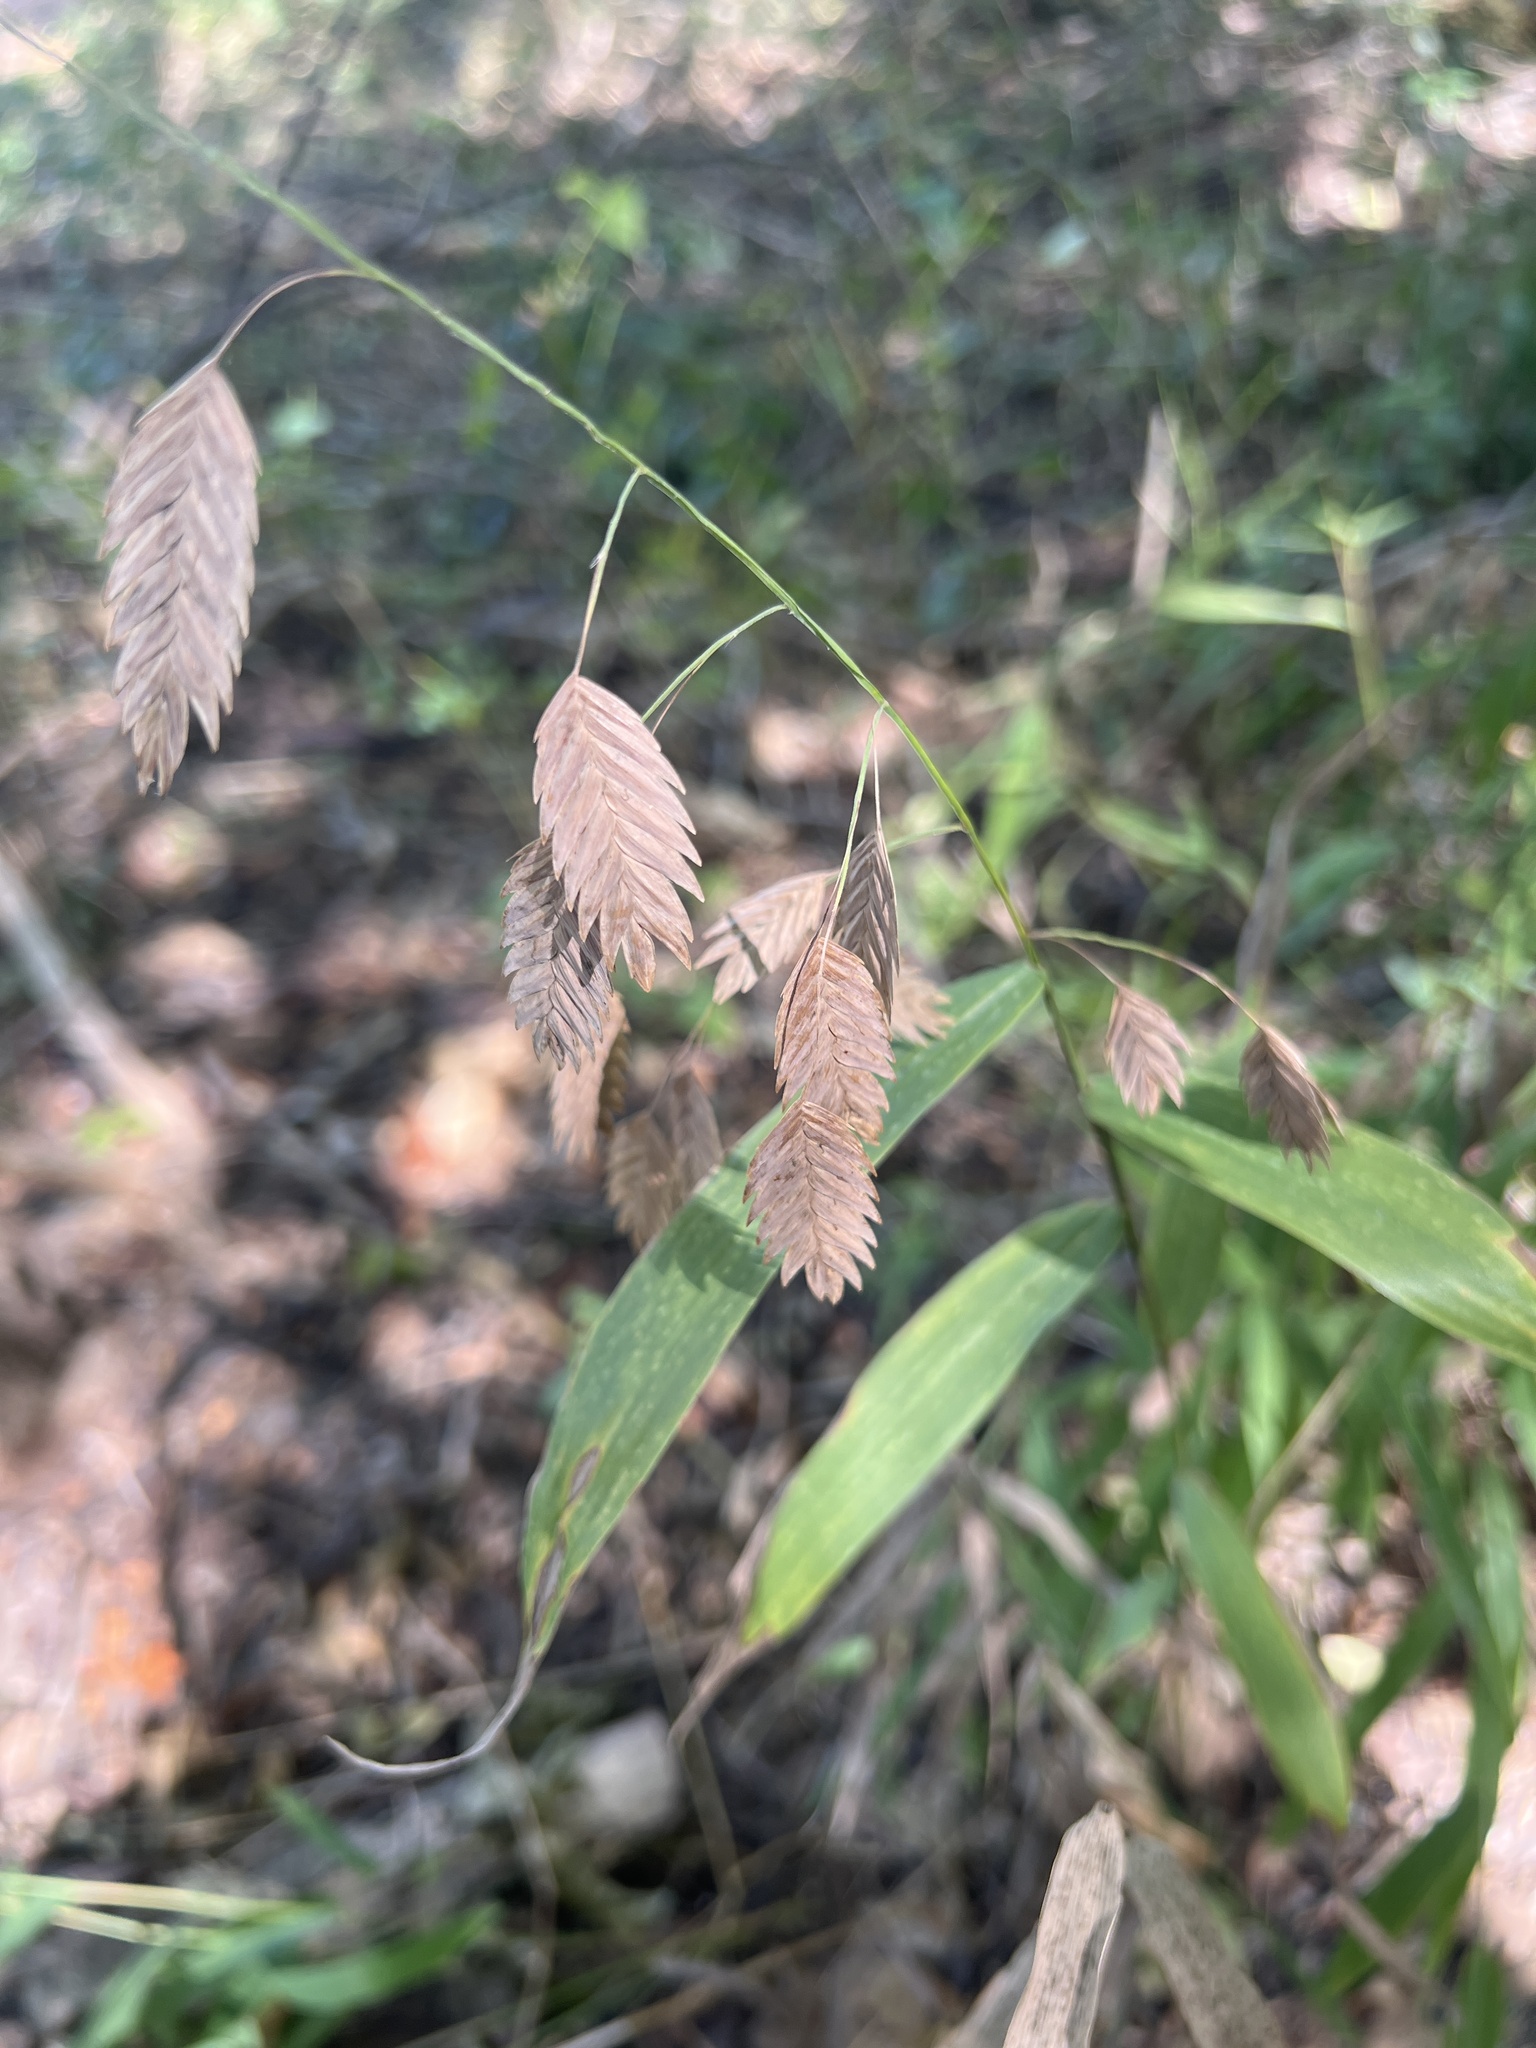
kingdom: Plantae
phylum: Tracheophyta
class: Liliopsida
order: Poales
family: Poaceae
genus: Chasmanthium
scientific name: Chasmanthium latifolium
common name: Broad-leaved chasmanthium
